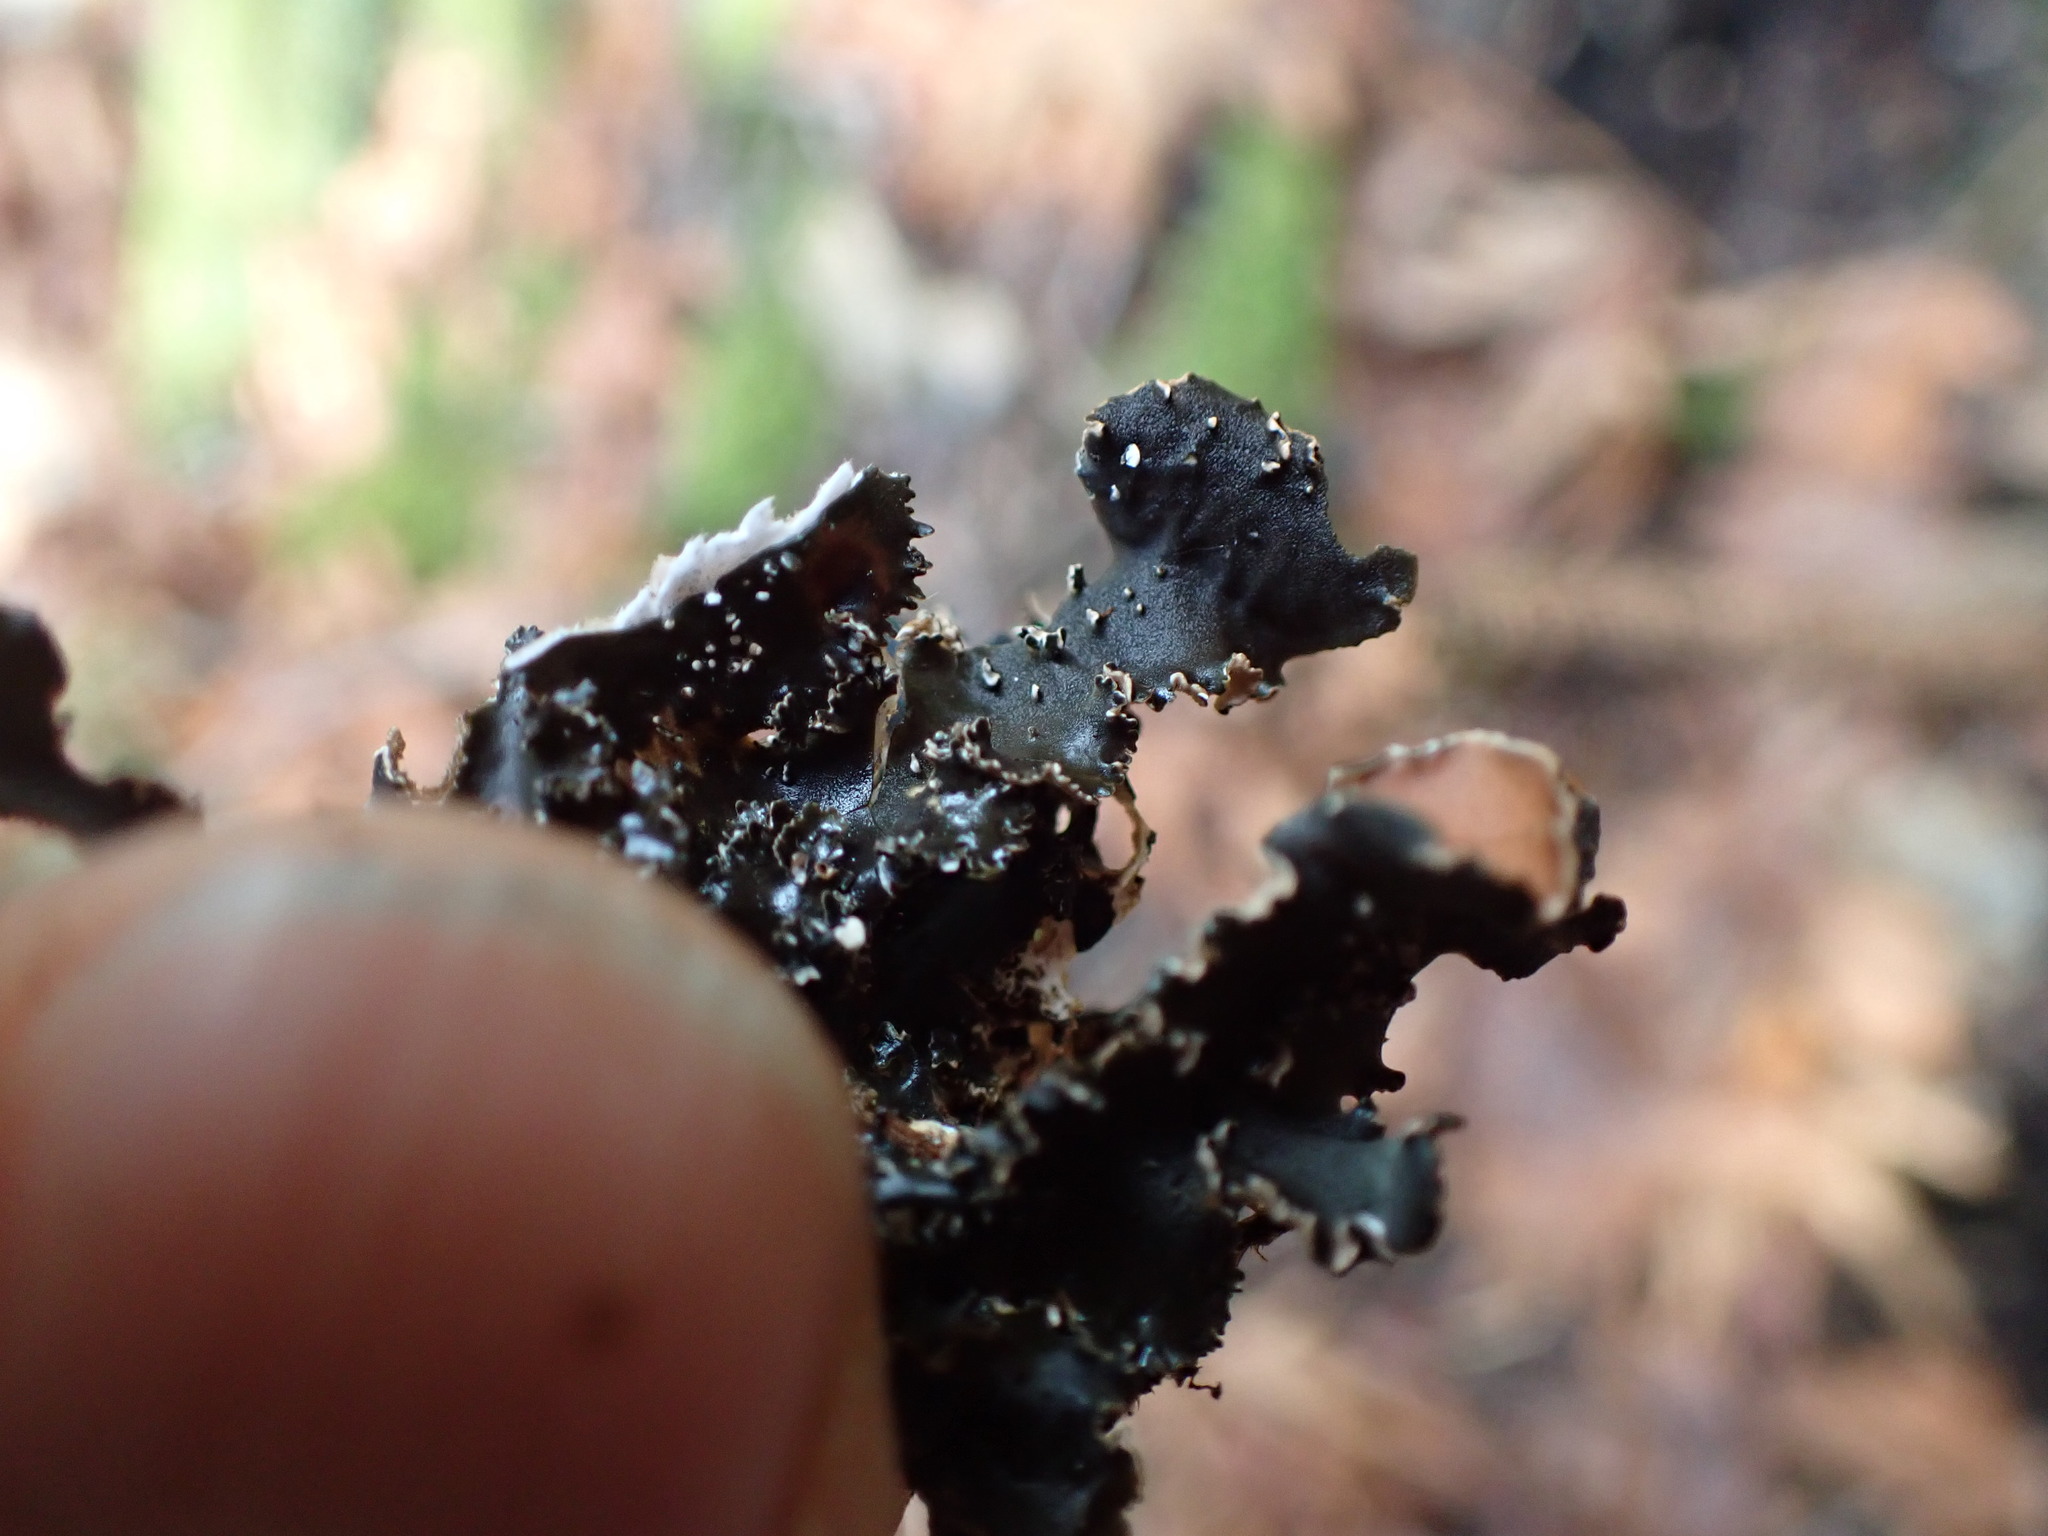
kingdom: Fungi
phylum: Ascomycota
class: Lecanoromycetes
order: Peltigerales
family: Nephromataceae
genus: Nephroma
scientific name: Nephroma helveticum
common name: Fringed kidney lichen
